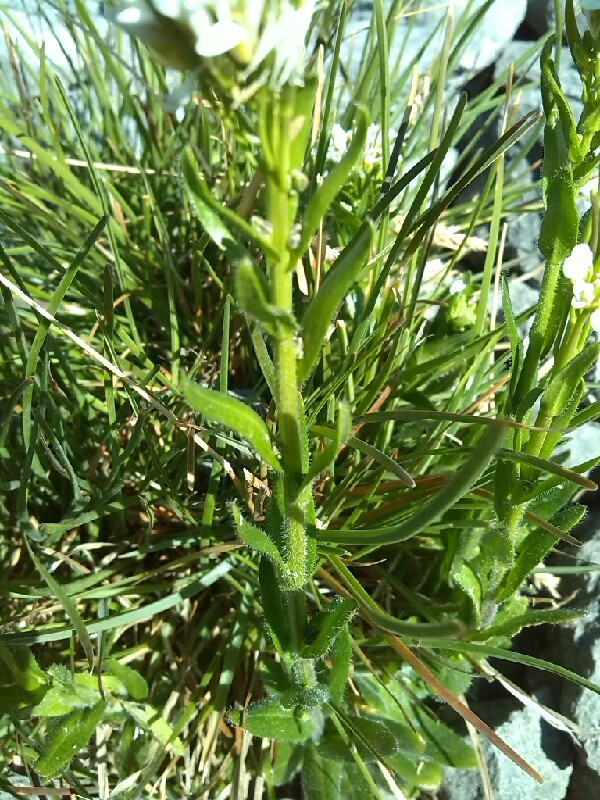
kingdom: Plantae
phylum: Tracheophyta
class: Magnoliopsida
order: Brassicales
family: Brassicaceae
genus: Arabis
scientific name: Arabis hirsuta
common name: Hairy rock-cress
